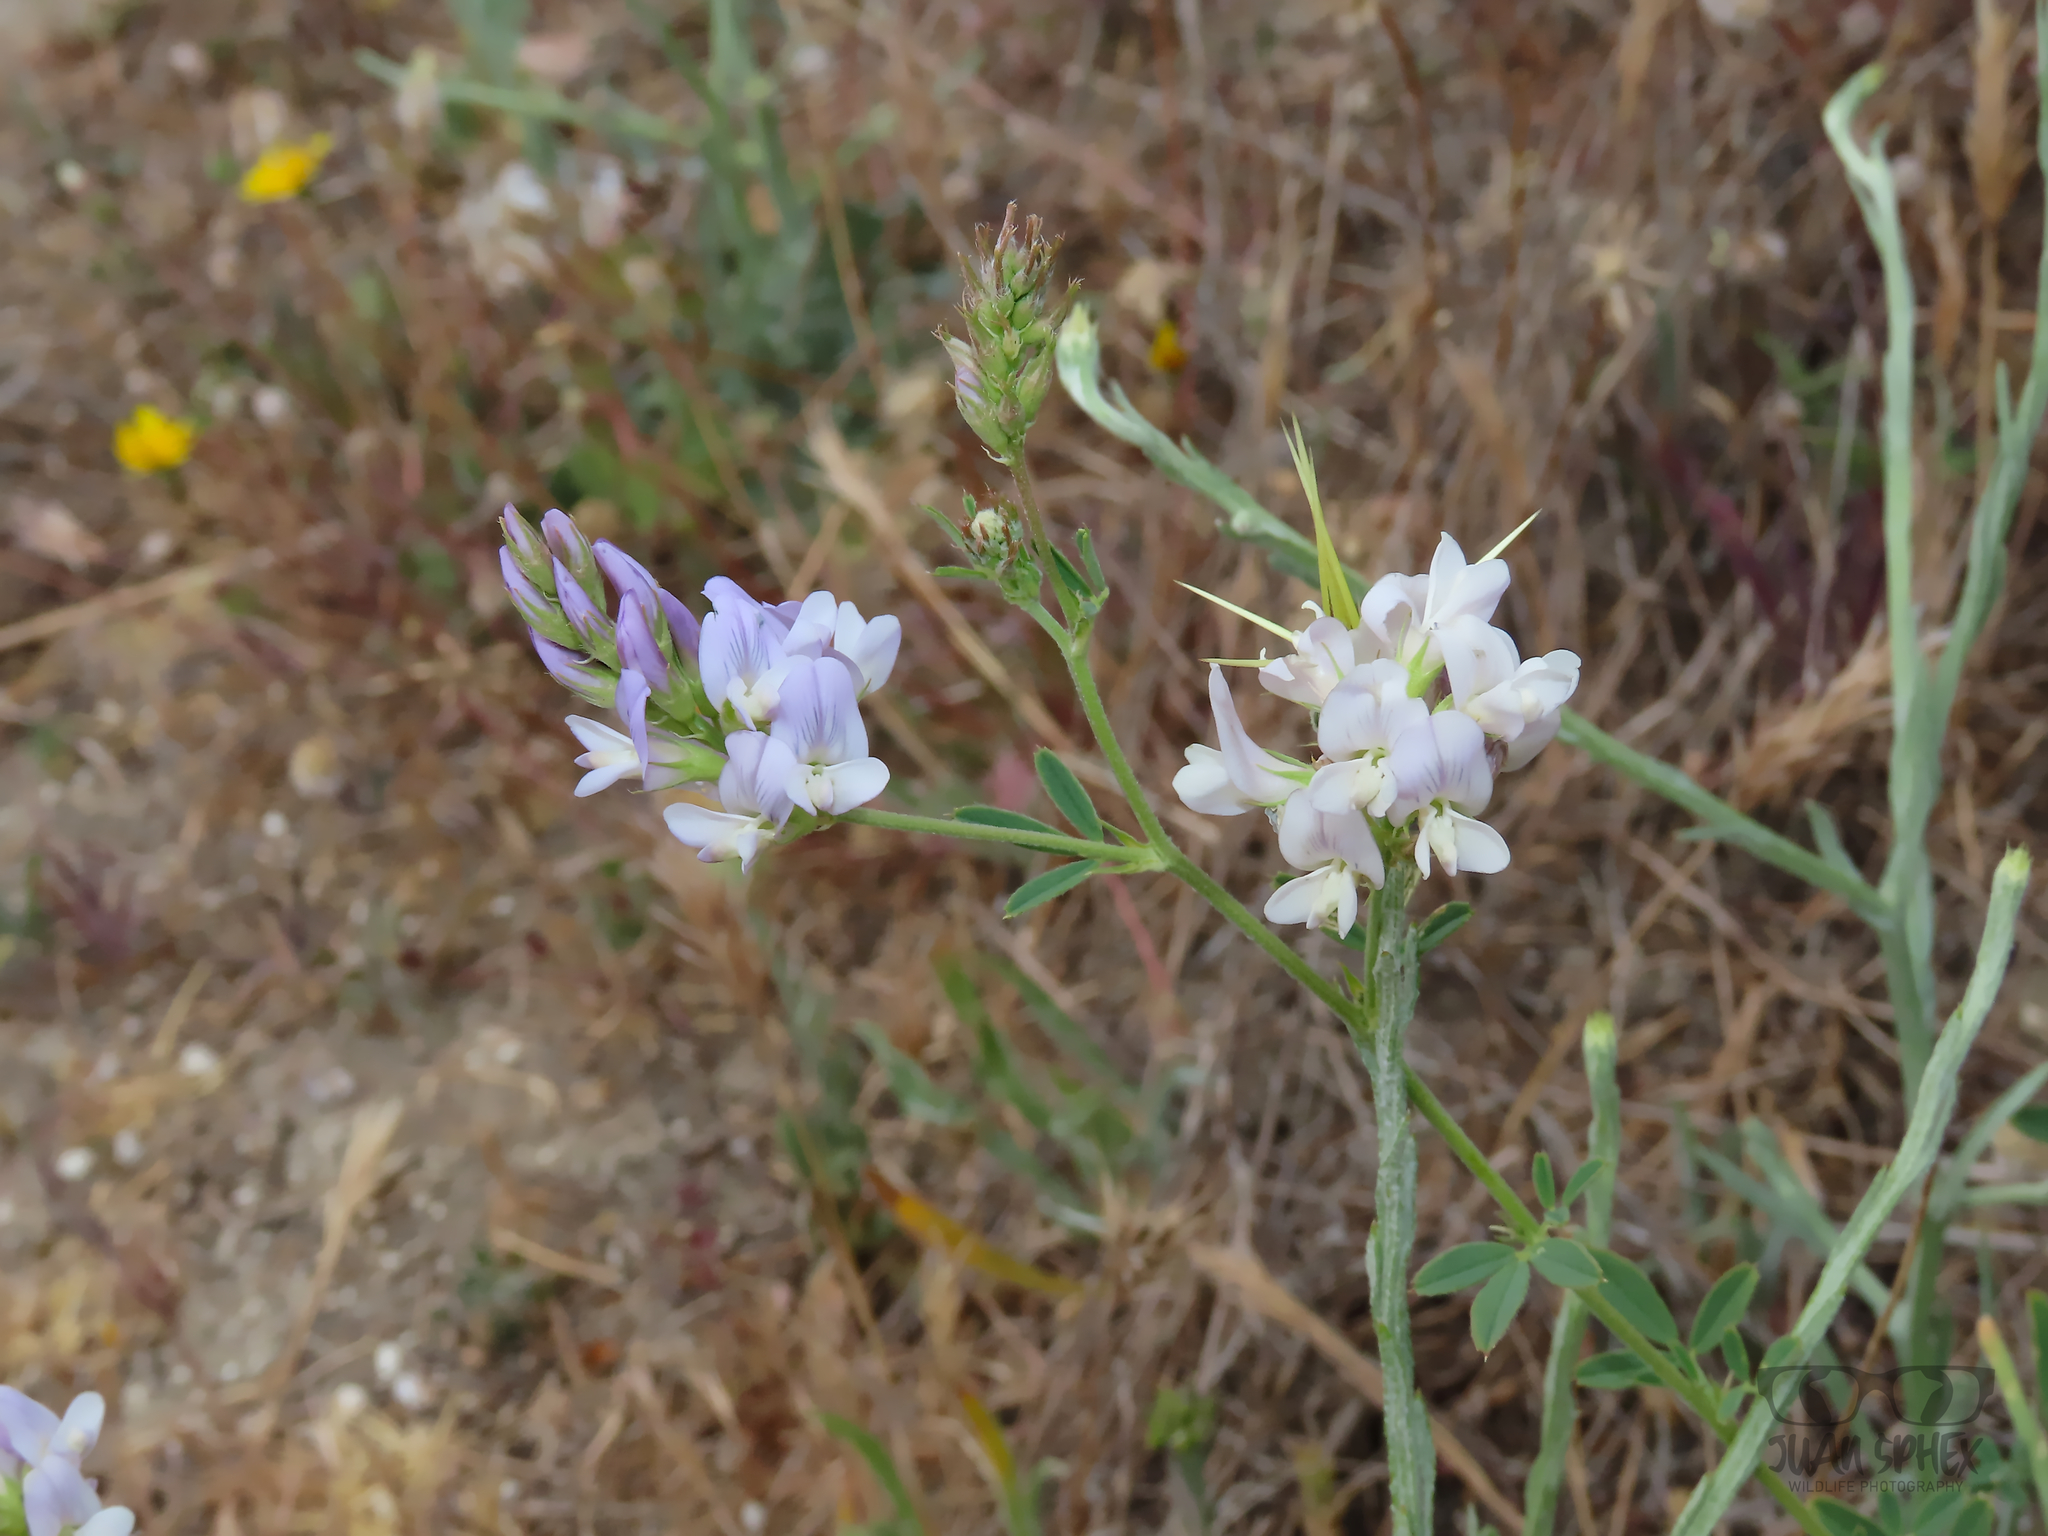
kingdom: Plantae
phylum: Tracheophyta
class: Magnoliopsida
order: Fabales
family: Fabaceae
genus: Medicago
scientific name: Medicago sativa
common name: Alfalfa
